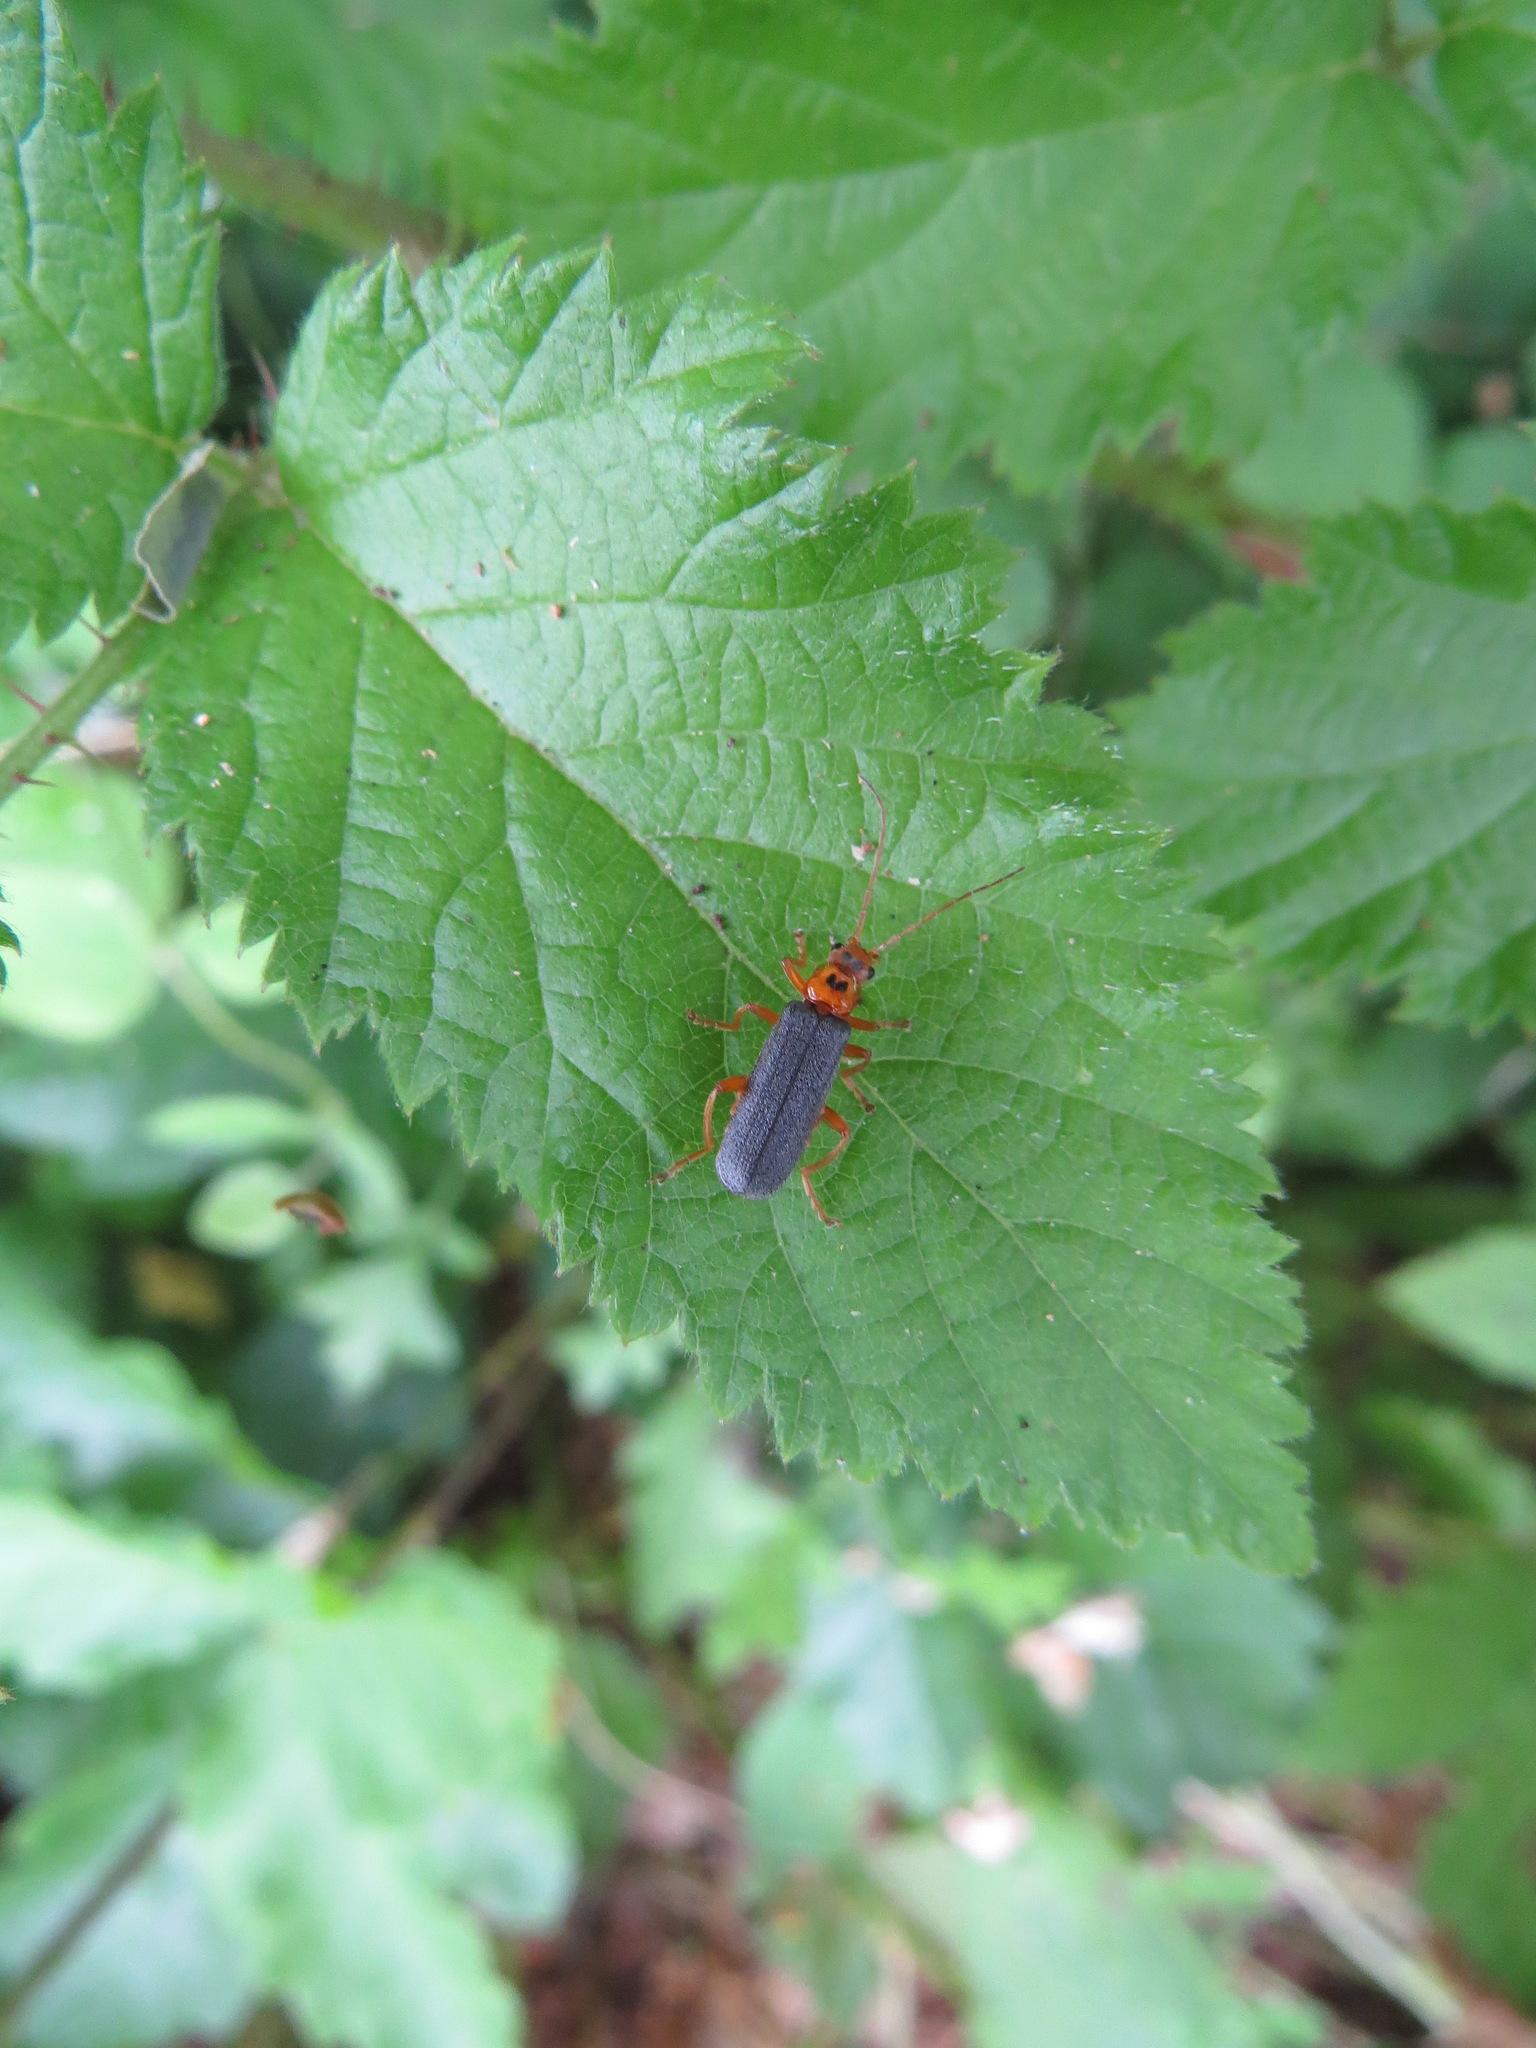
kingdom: Animalia
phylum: Arthropoda
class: Insecta
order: Coleoptera
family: Cantharidae
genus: Cultellunguis
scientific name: Cultellunguis americanus
